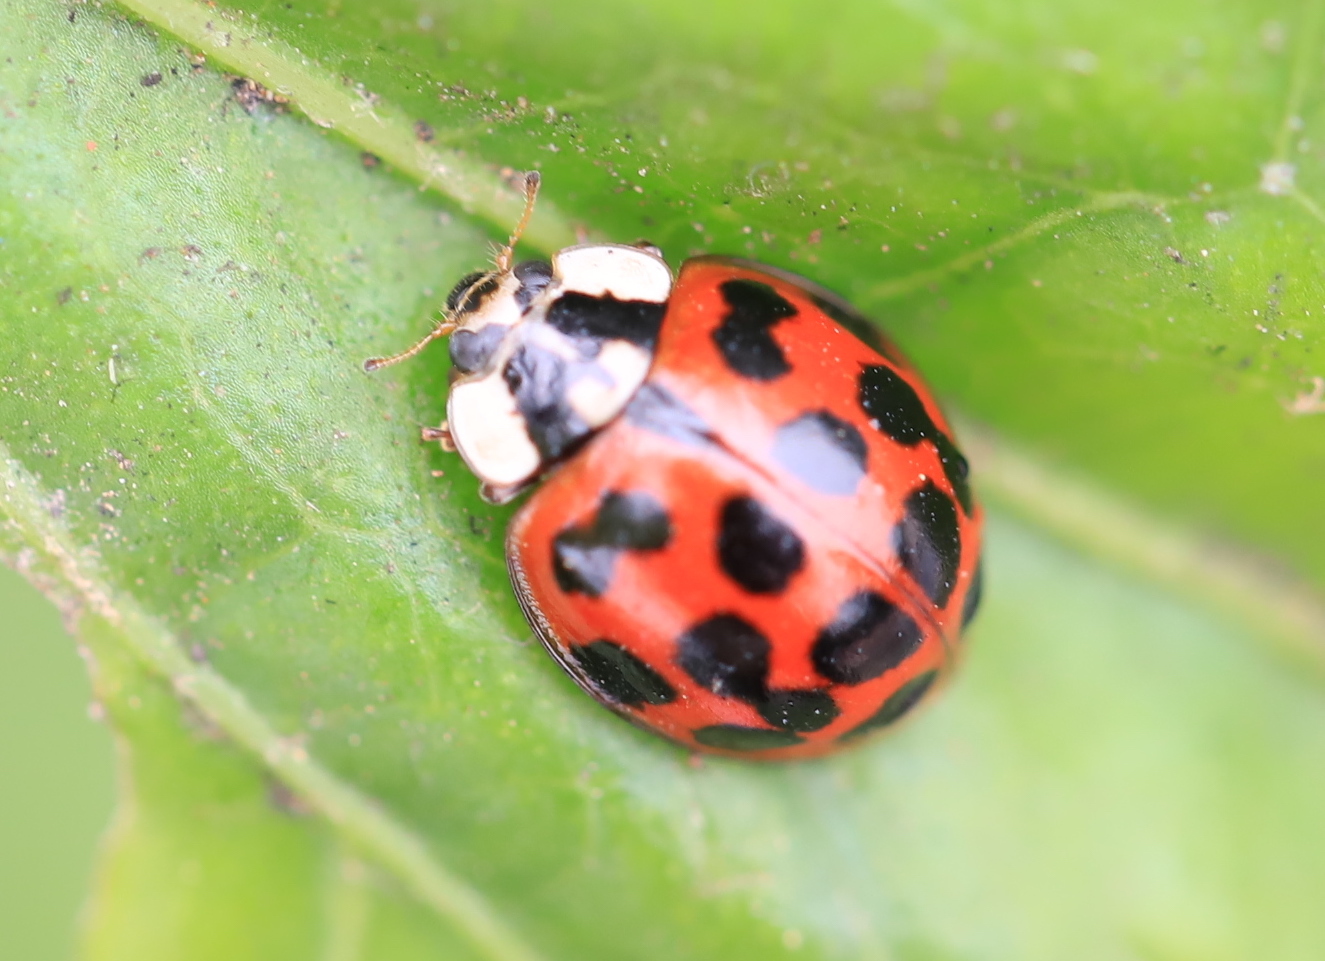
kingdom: Animalia
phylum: Arthropoda
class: Insecta
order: Coleoptera
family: Coccinellidae
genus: Harmonia
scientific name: Harmonia axyridis
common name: Harlequin ladybird
